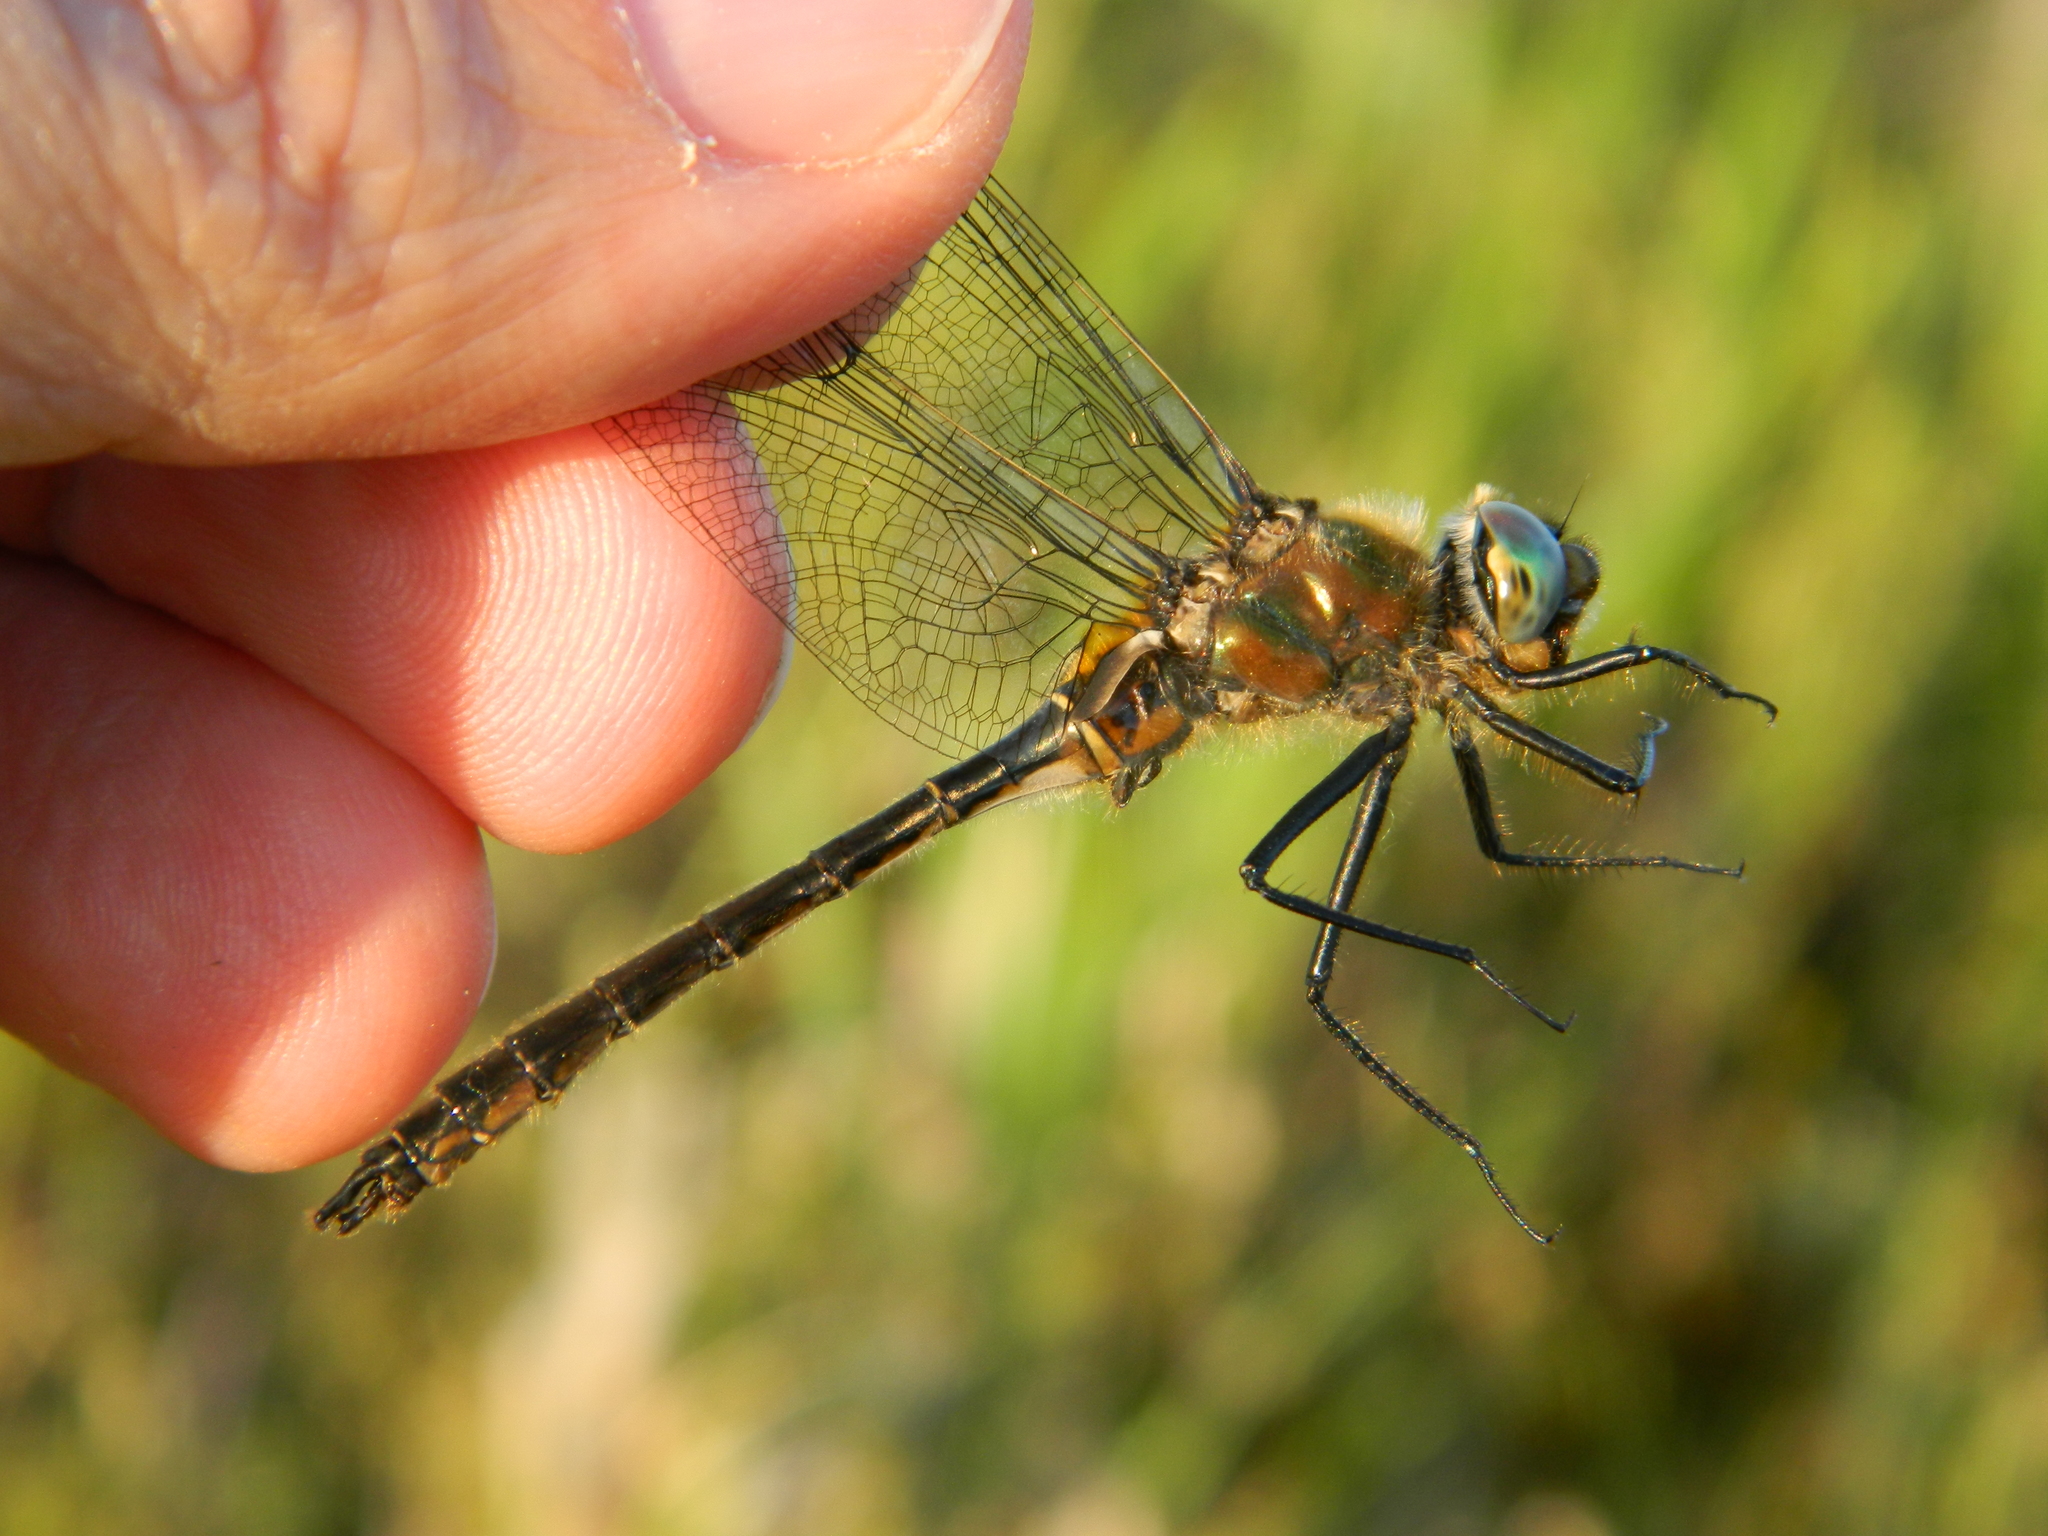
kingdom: Animalia
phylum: Arthropoda
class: Insecta
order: Odonata
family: Corduliidae
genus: Cordulia
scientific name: Cordulia shurtleffii
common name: American emerald
